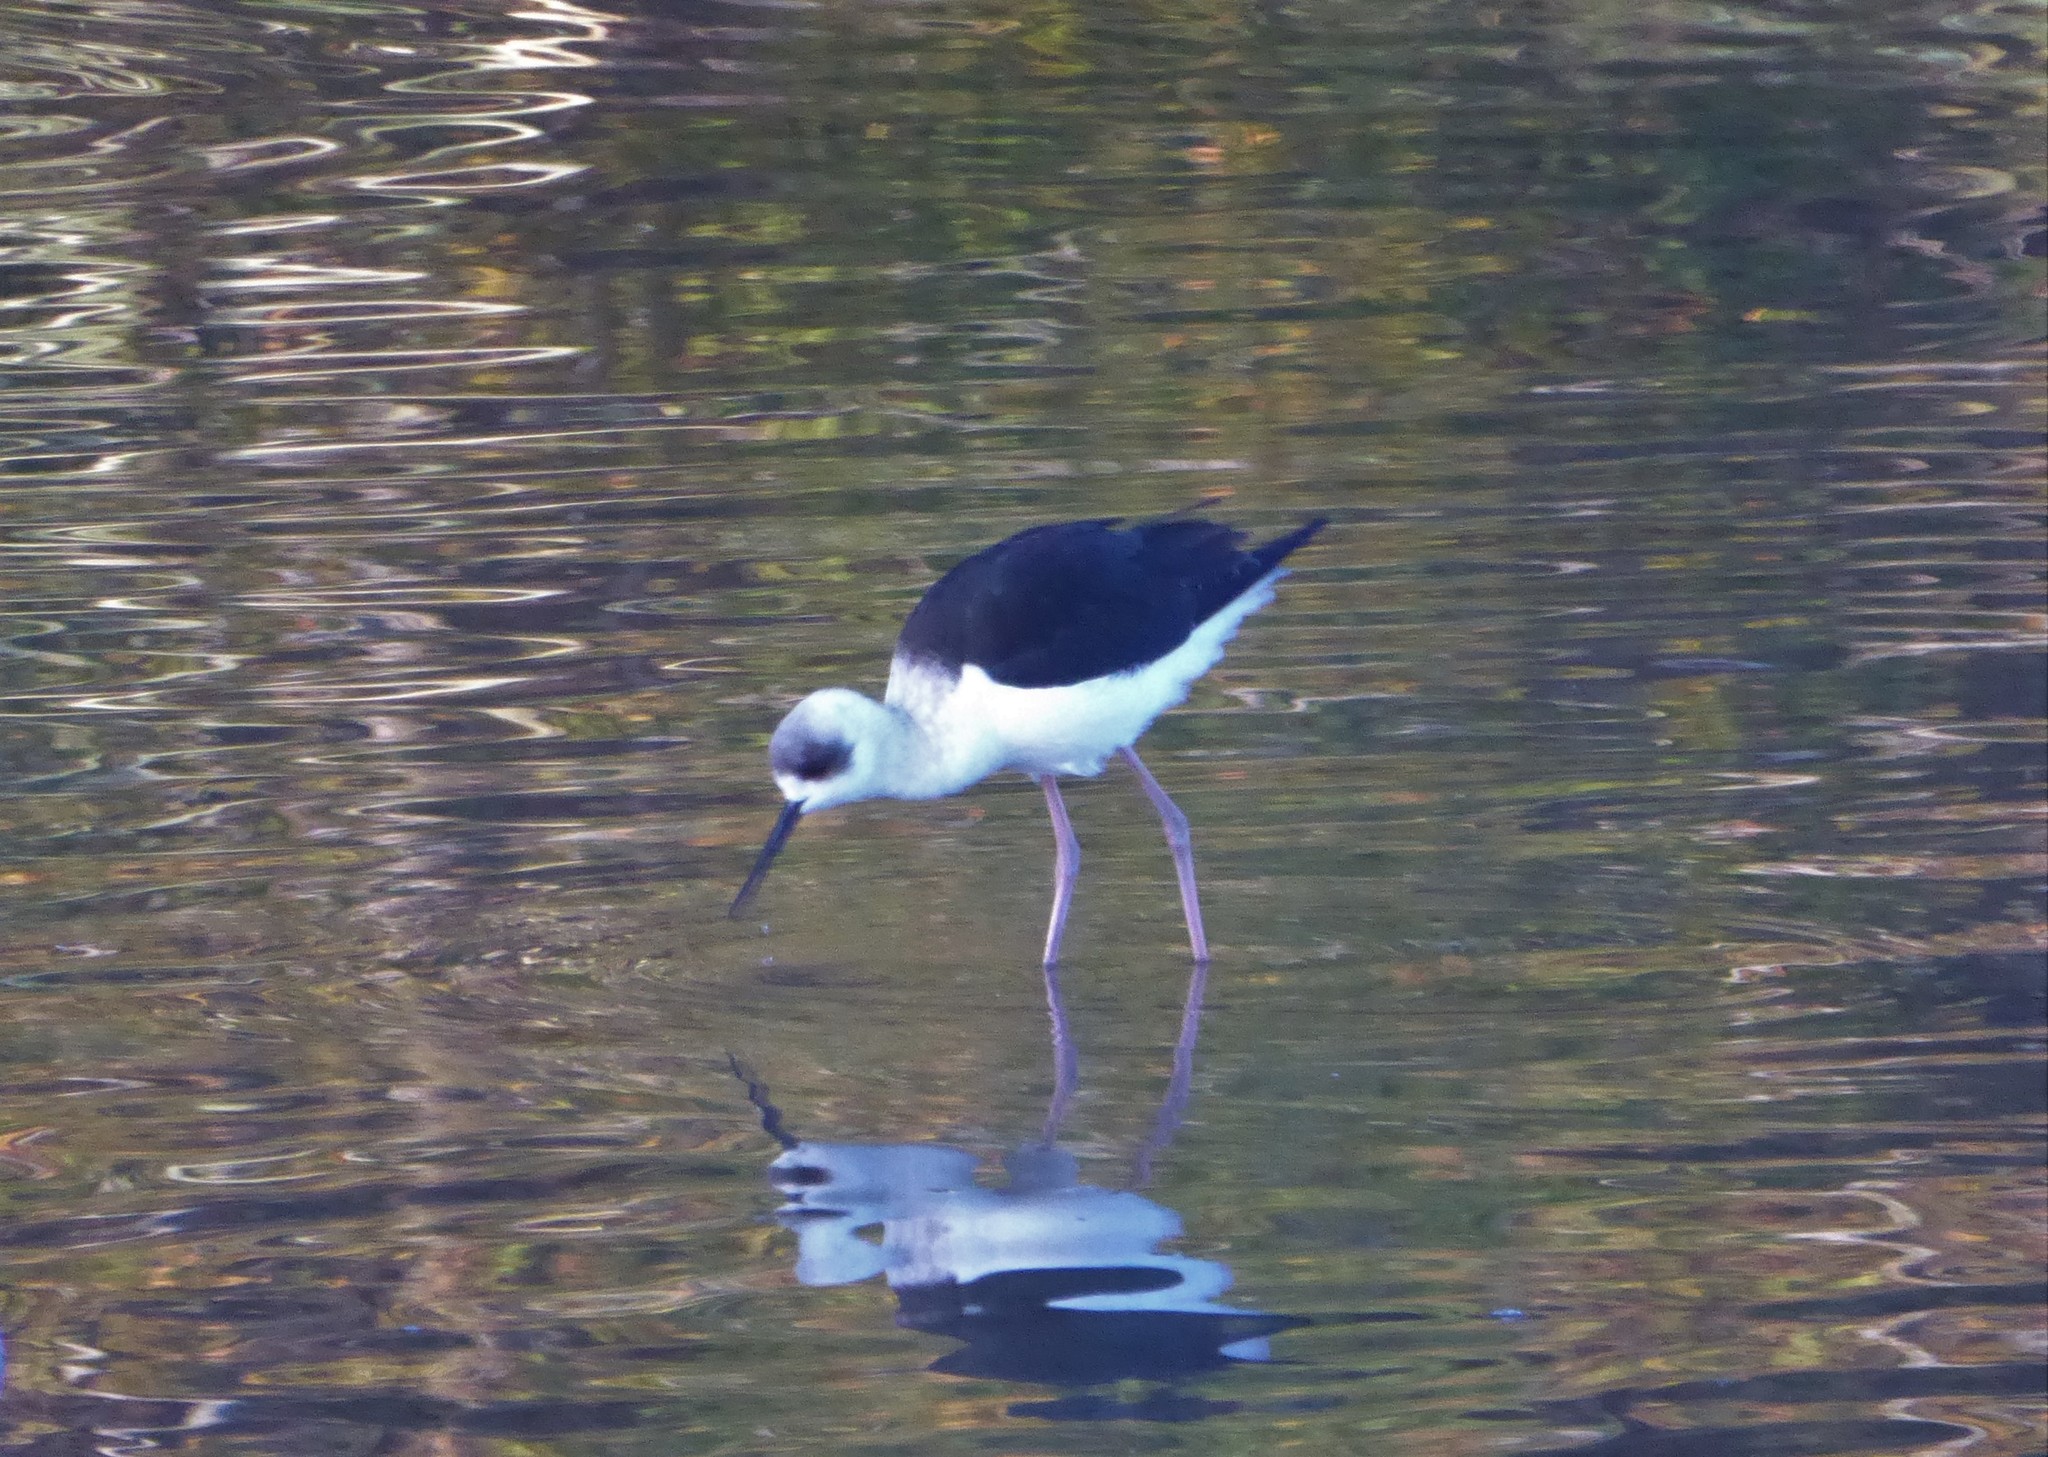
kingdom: Animalia
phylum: Chordata
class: Aves
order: Charadriiformes
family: Recurvirostridae
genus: Himantopus
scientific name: Himantopus leucocephalus
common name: White-headed stilt
